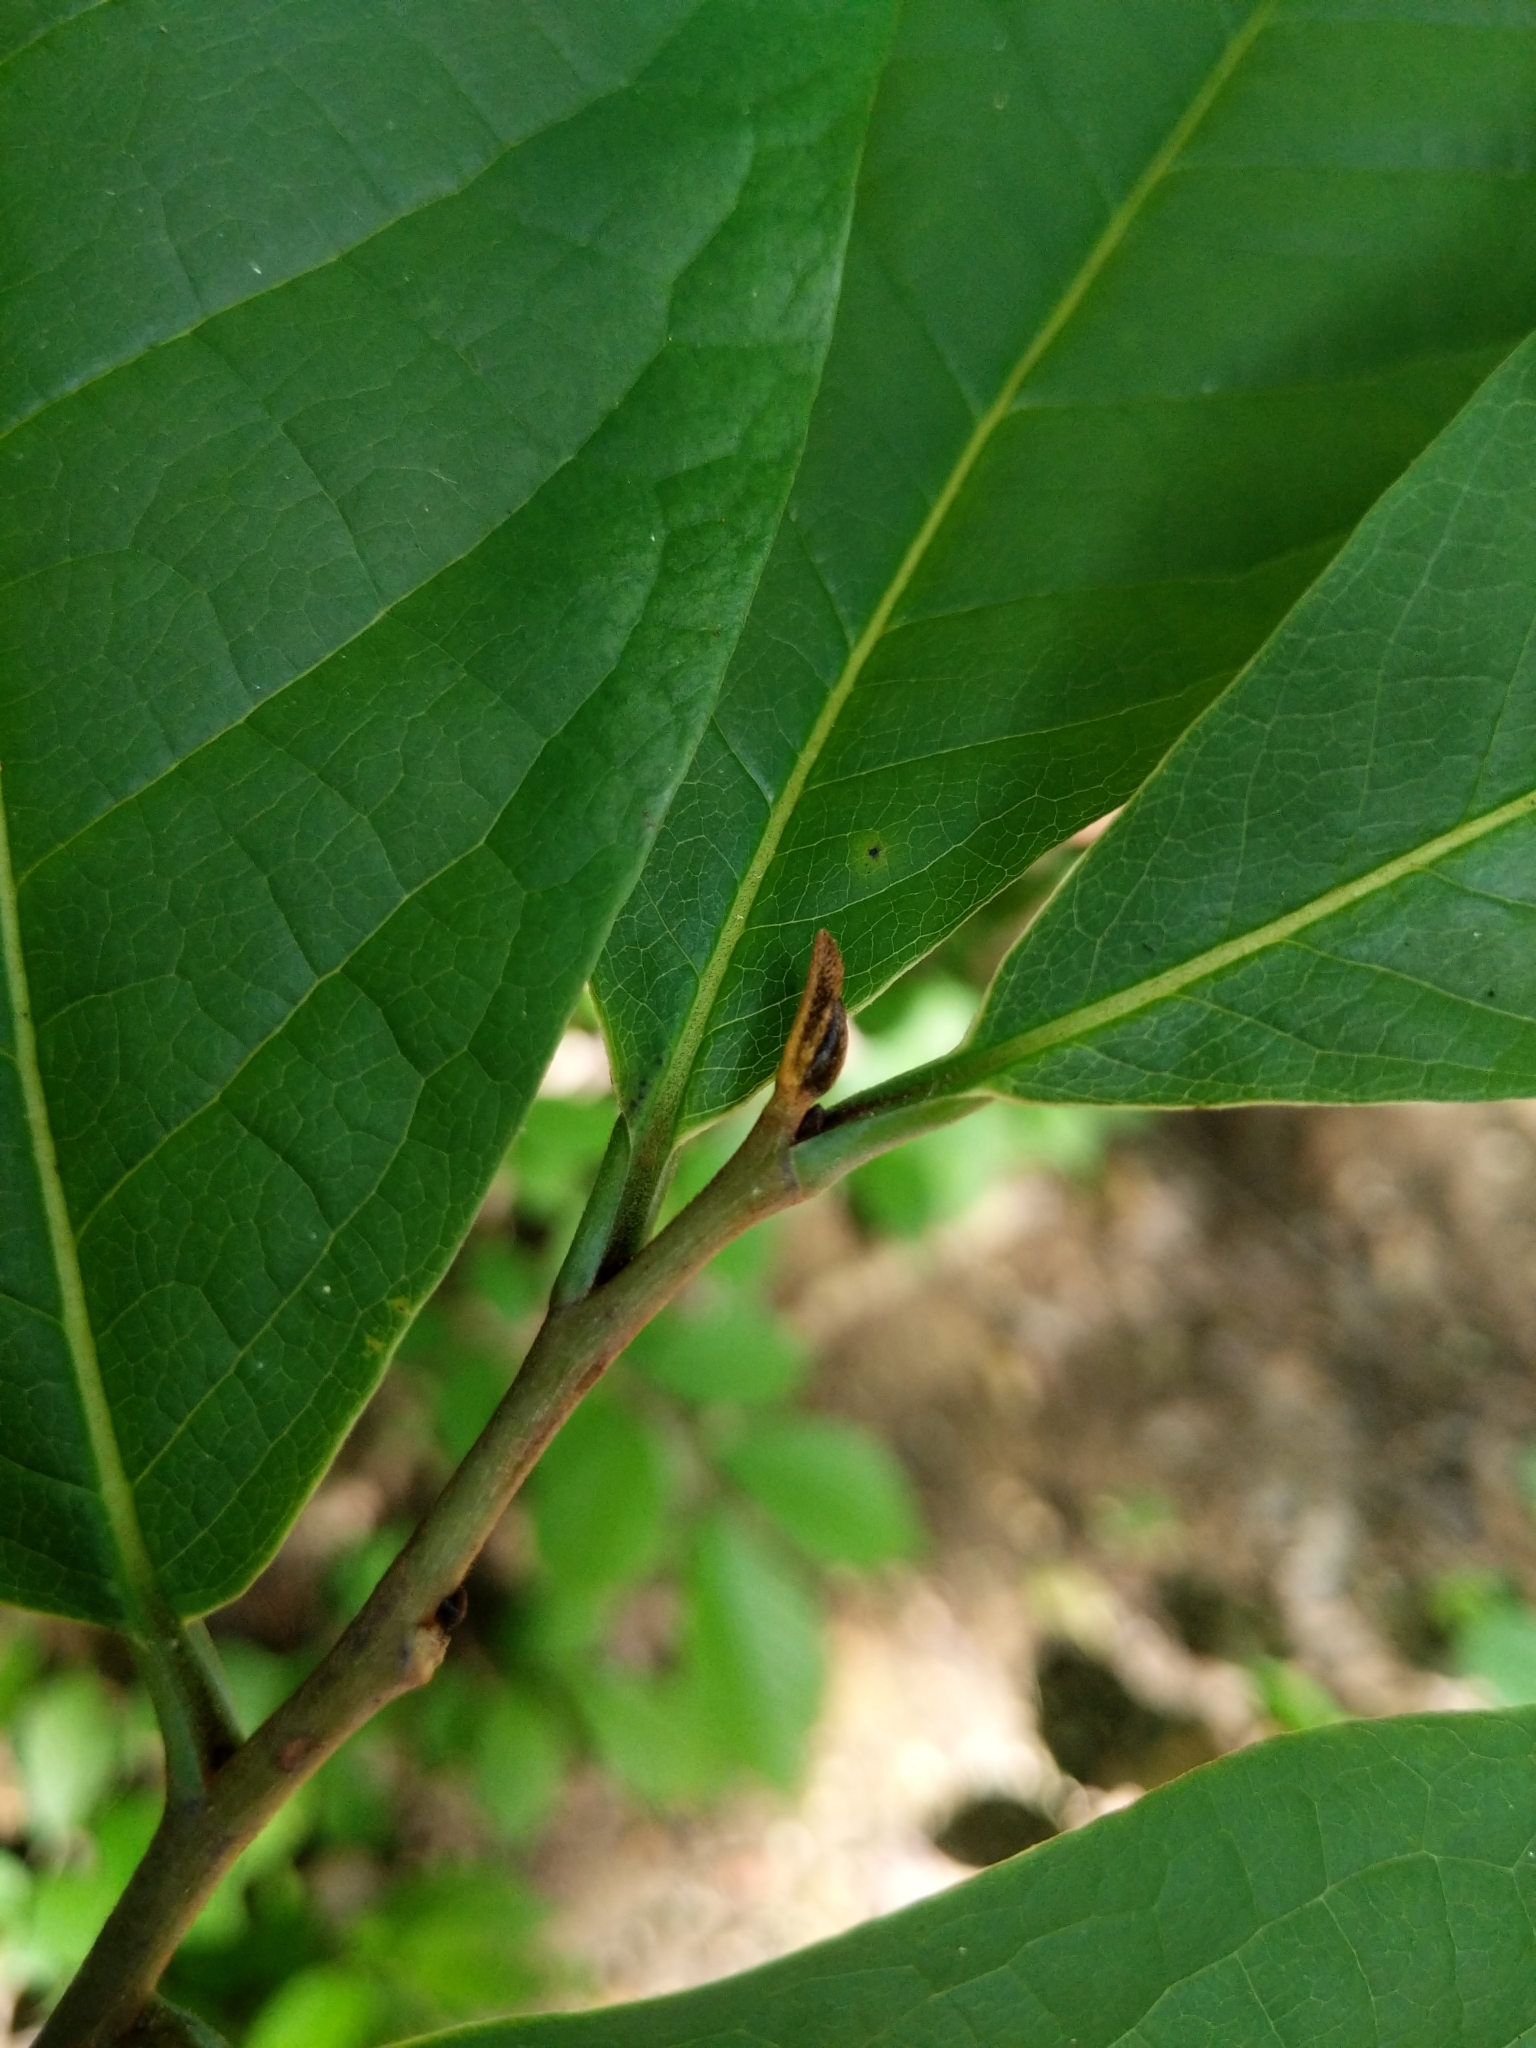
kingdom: Plantae
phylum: Tracheophyta
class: Magnoliopsida
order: Magnoliales
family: Annonaceae
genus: Asimina
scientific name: Asimina triloba
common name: Dog-banana
